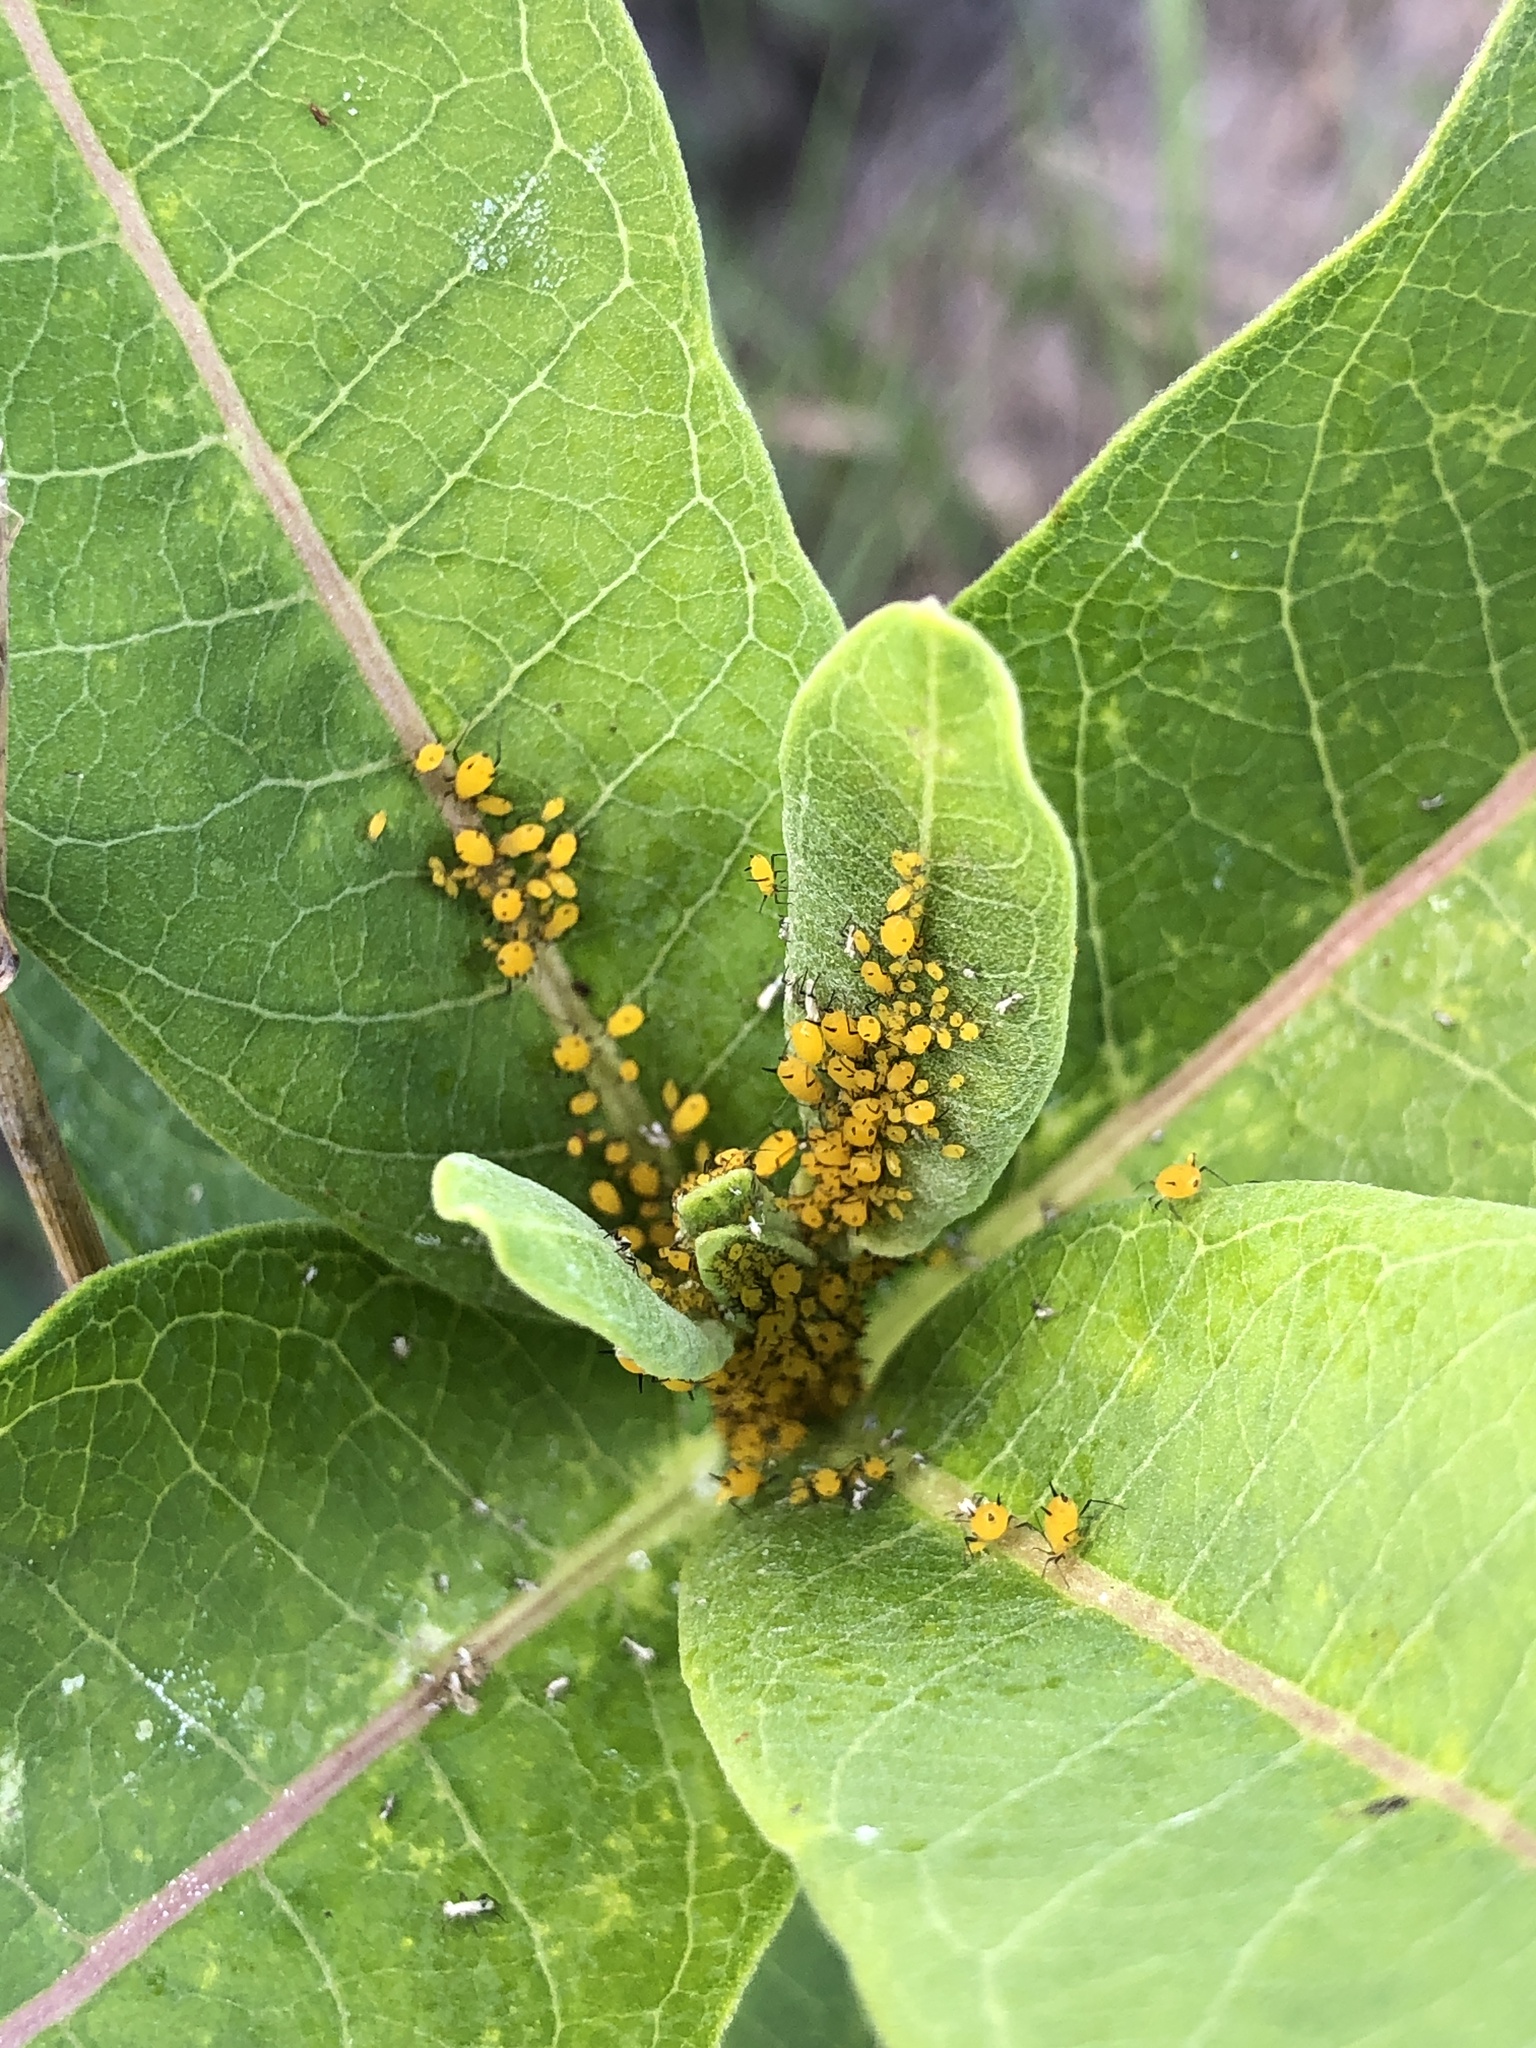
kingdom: Animalia
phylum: Arthropoda
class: Insecta
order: Hemiptera
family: Aphididae
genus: Aphis
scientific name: Aphis nerii
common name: Oleander aphid
